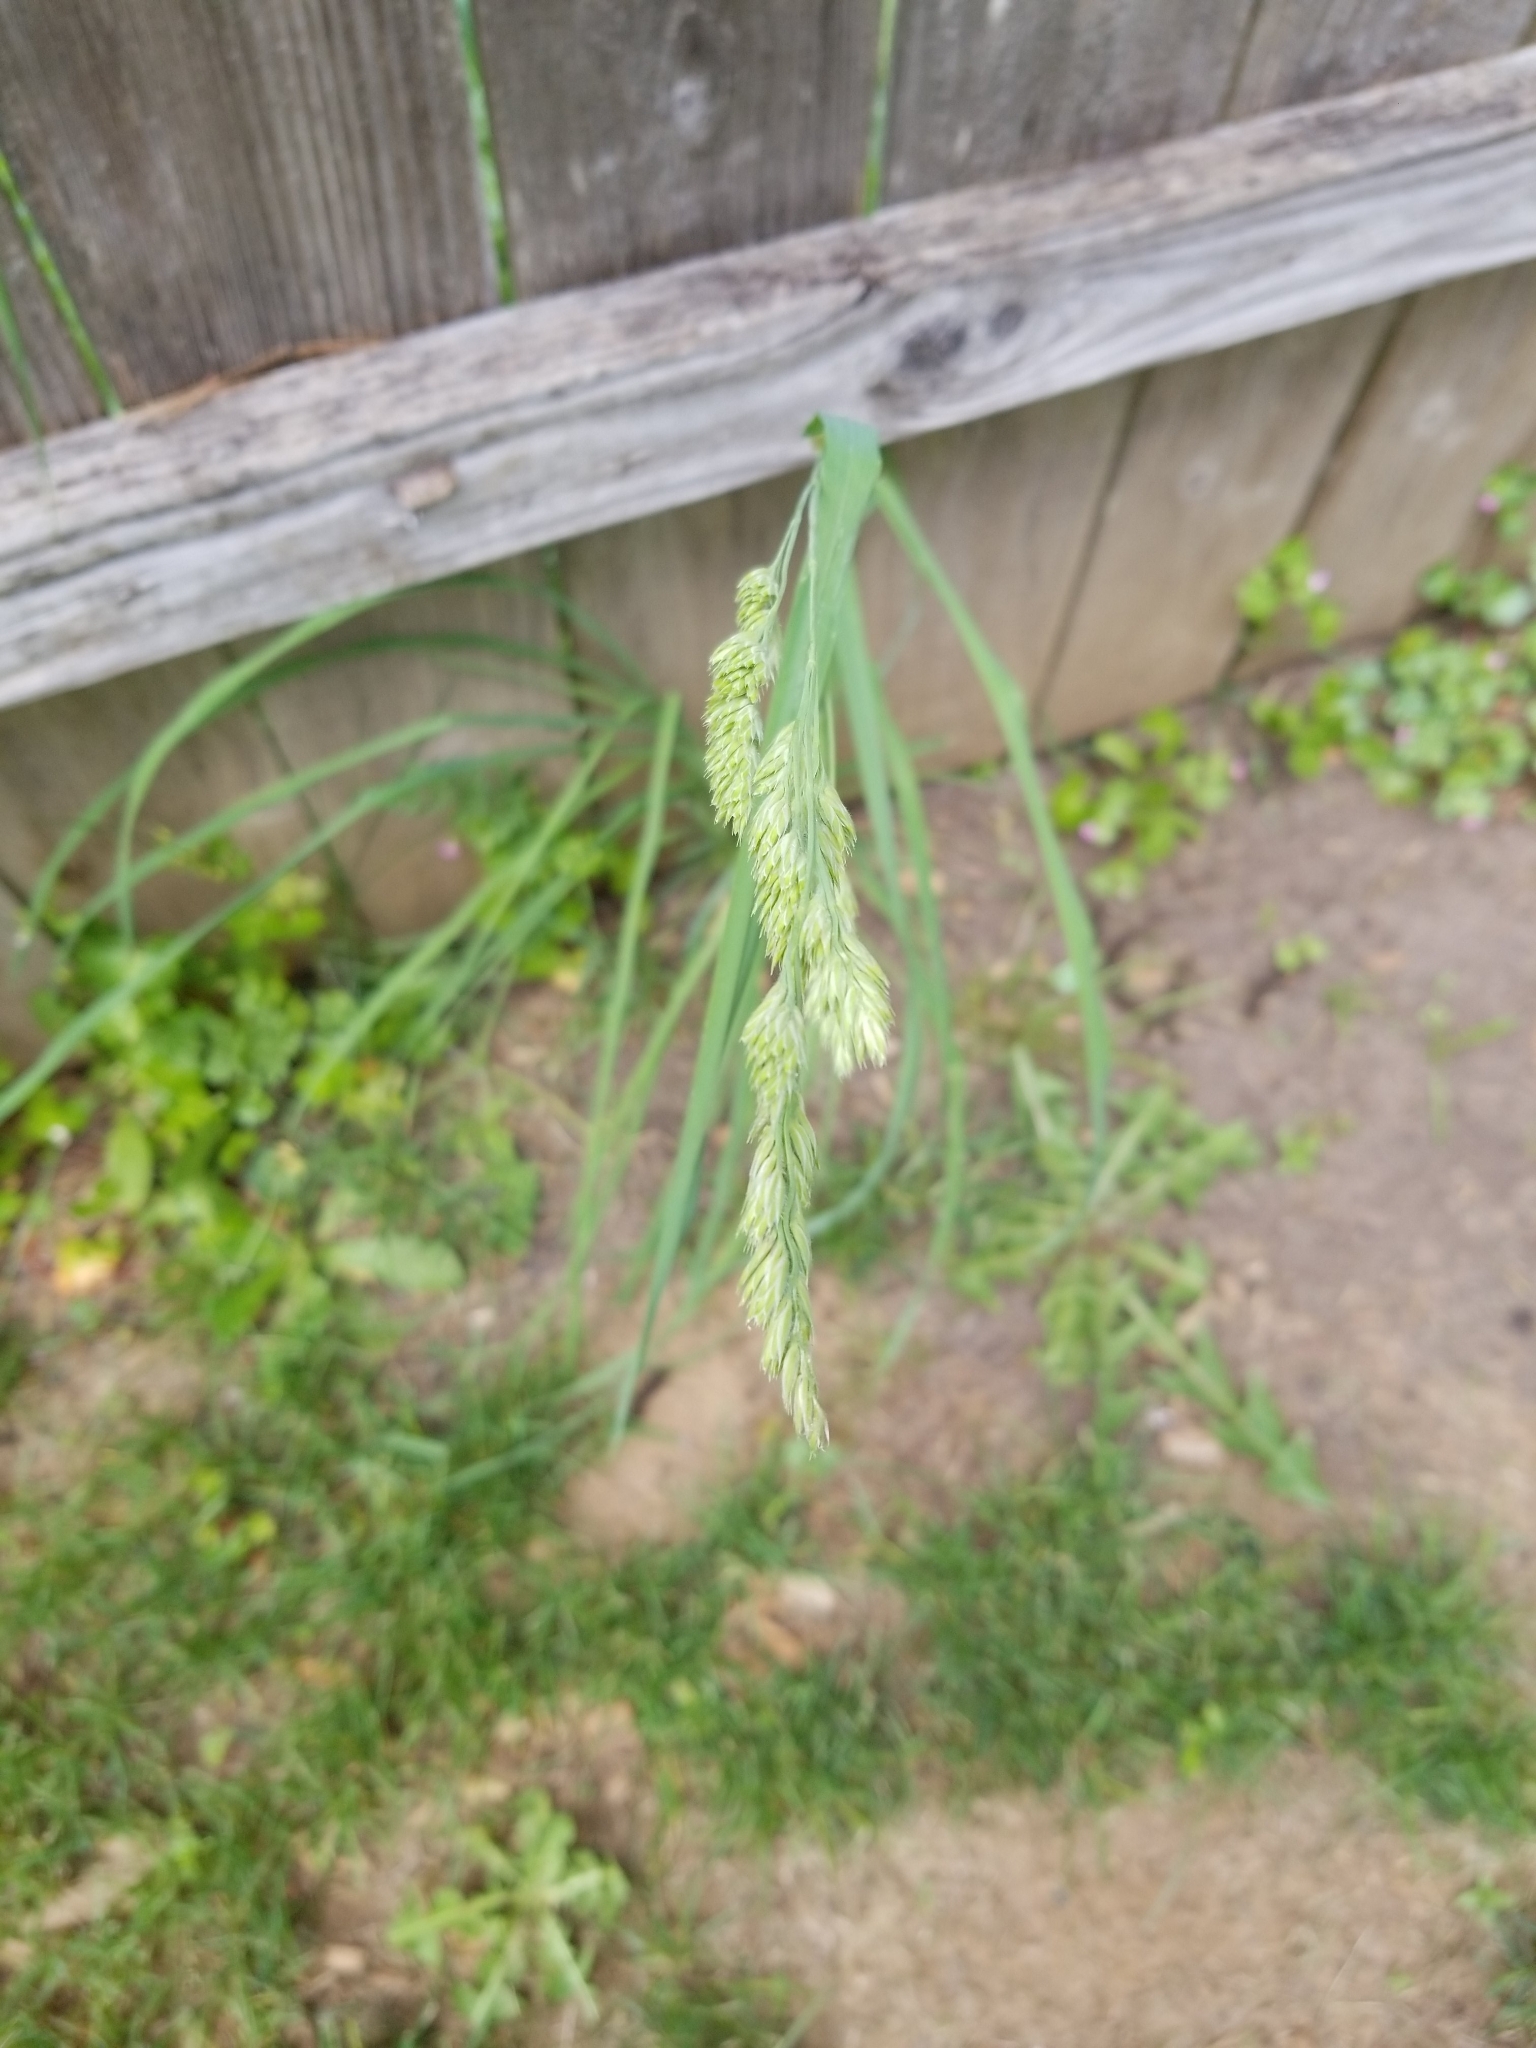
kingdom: Plantae
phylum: Tracheophyta
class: Liliopsida
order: Poales
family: Poaceae
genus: Dactylis
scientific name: Dactylis glomerata
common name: Orchardgrass
